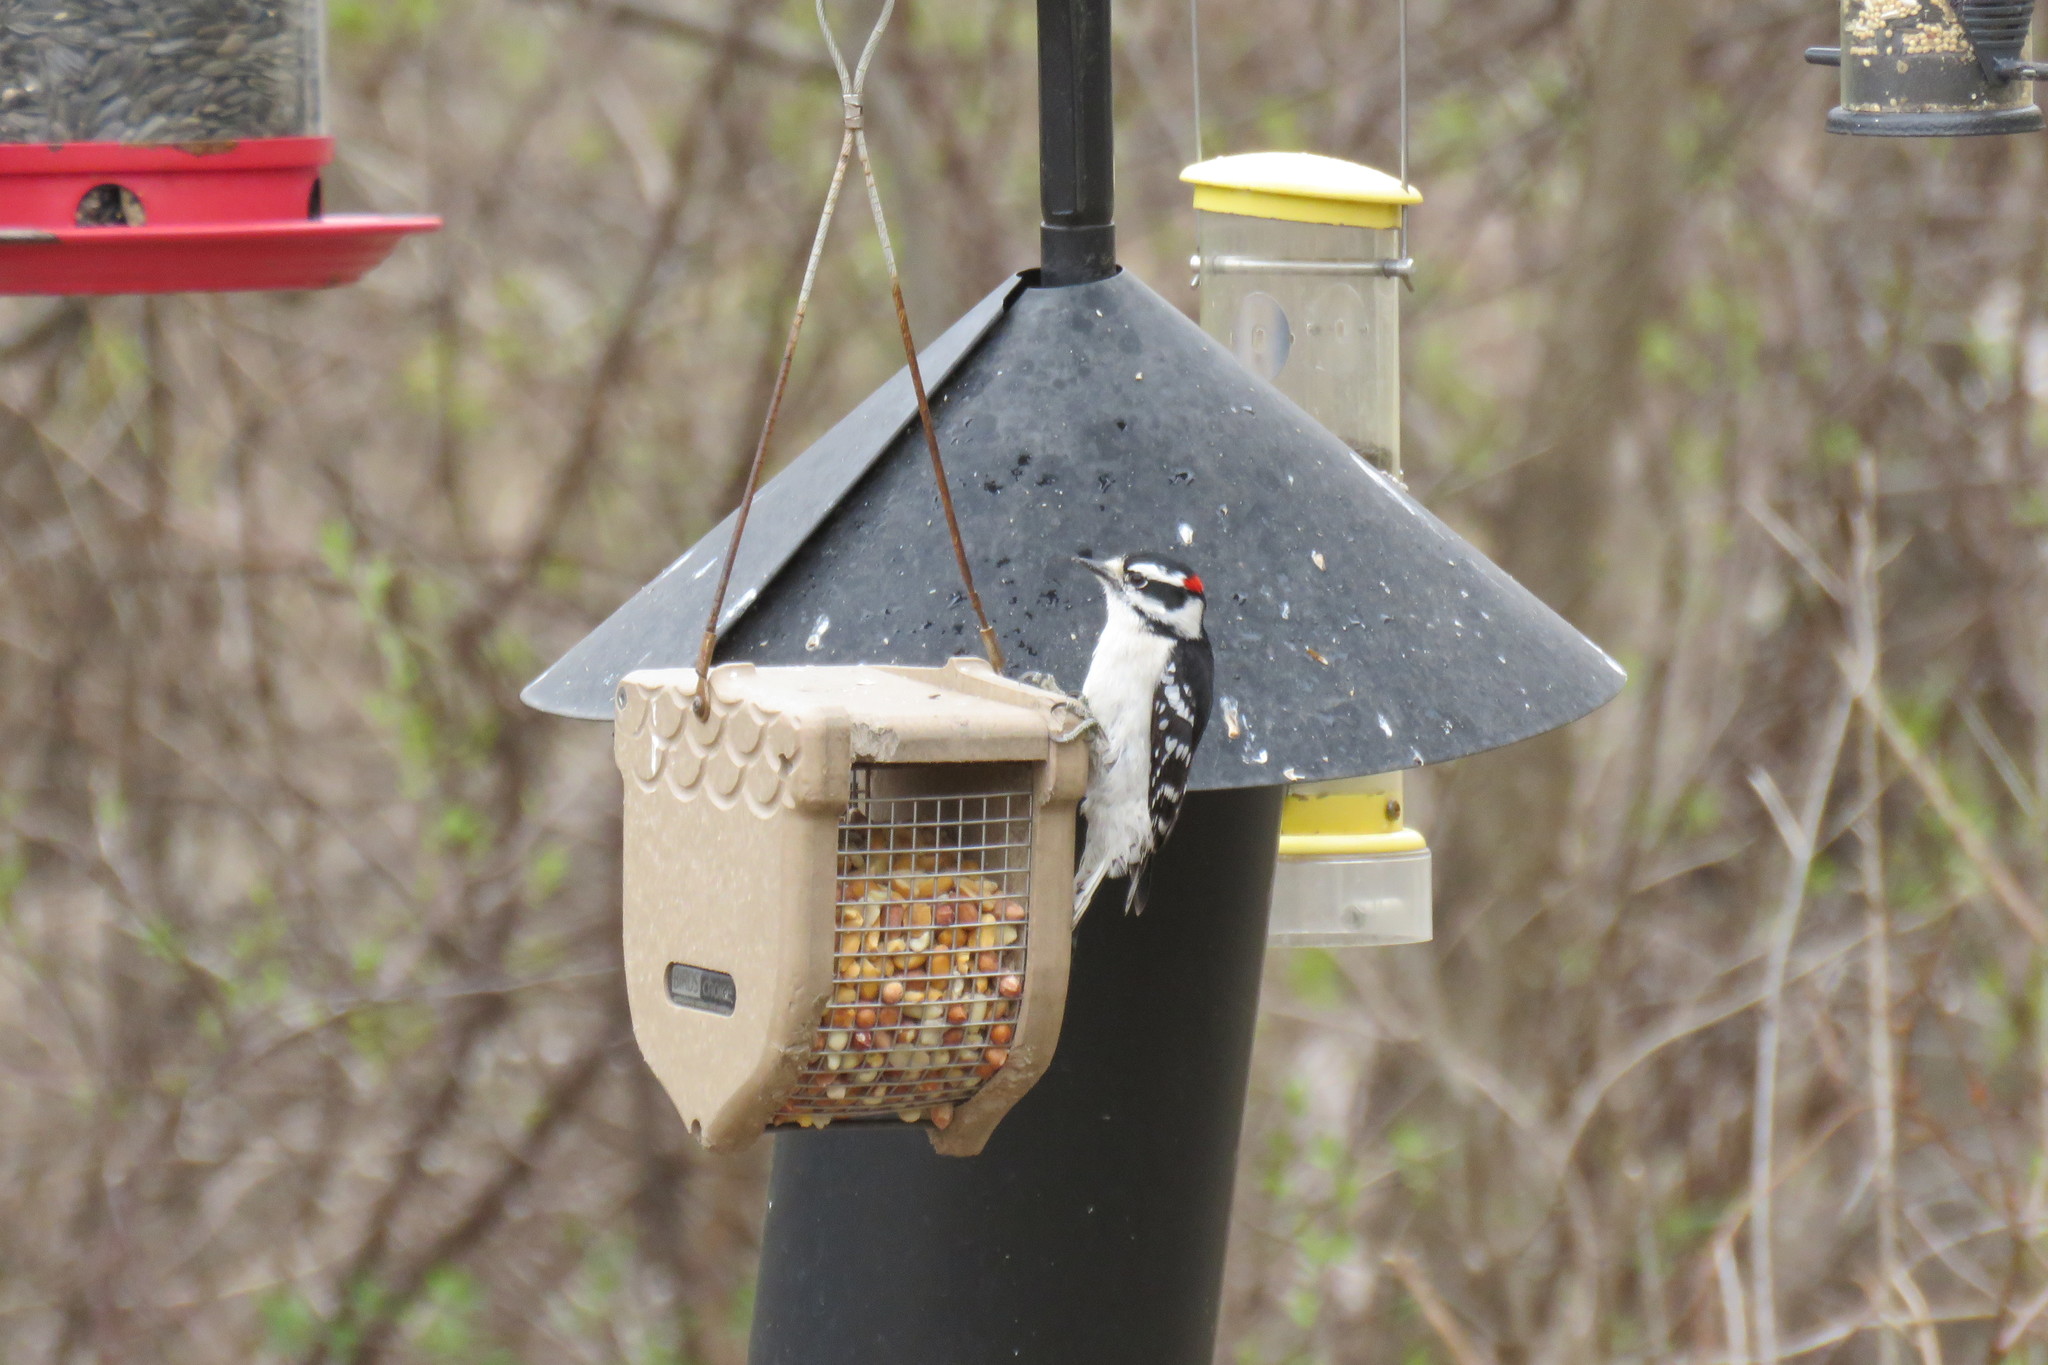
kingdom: Animalia
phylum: Chordata
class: Aves
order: Piciformes
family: Picidae
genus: Dryobates
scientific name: Dryobates pubescens
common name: Downy woodpecker
